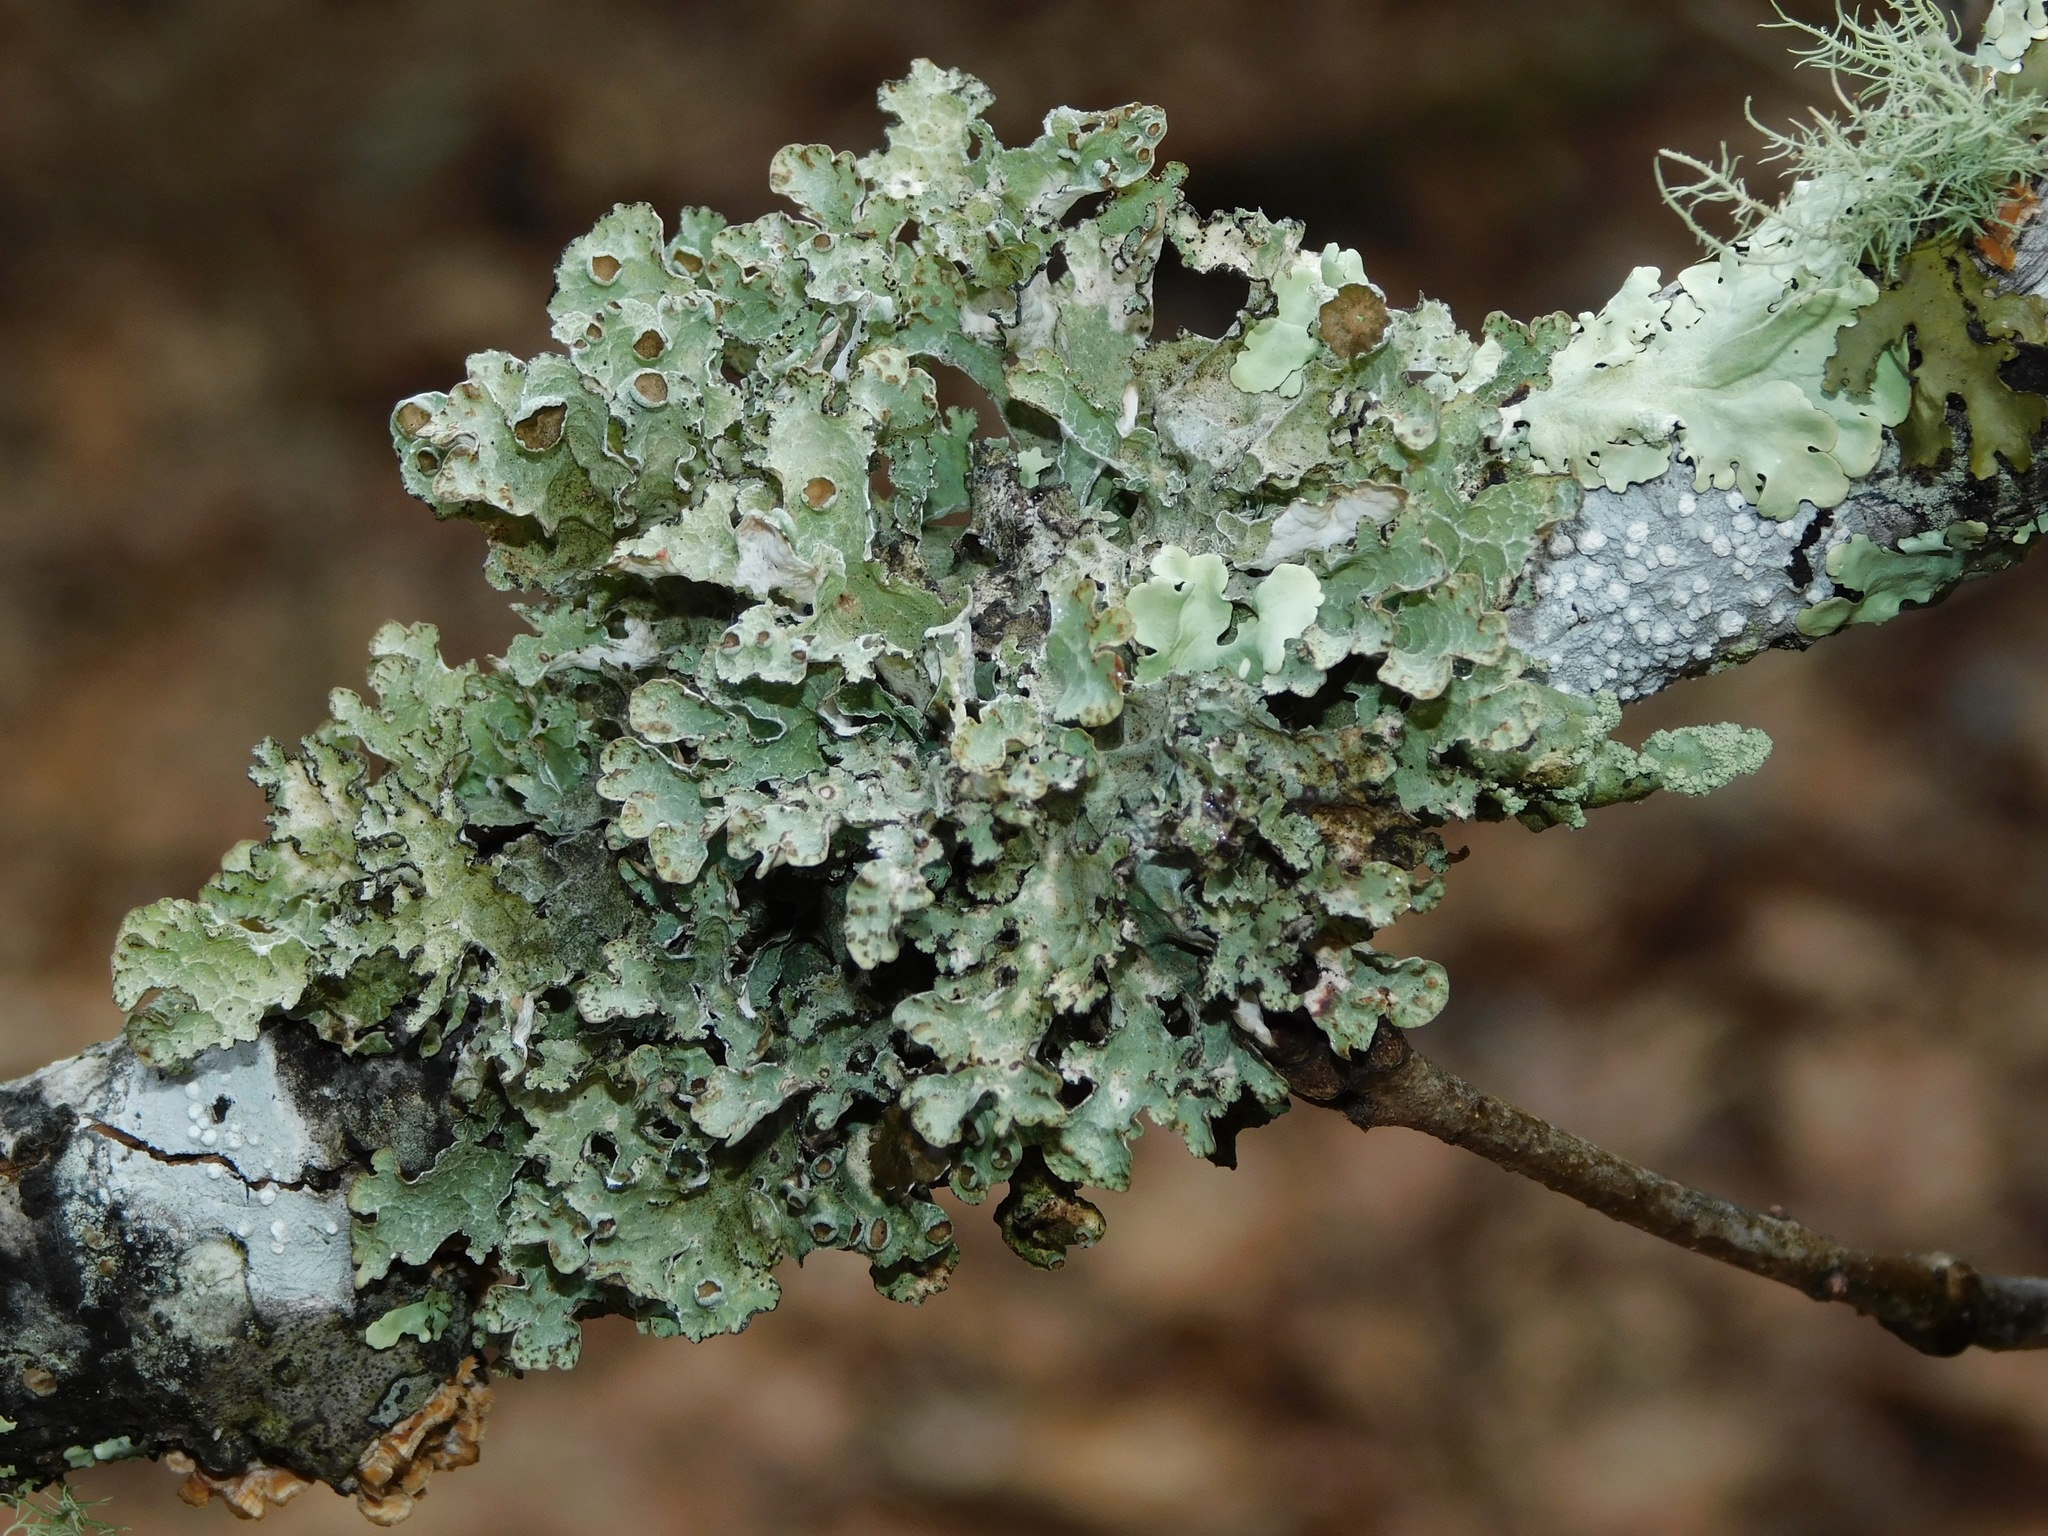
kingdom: Fungi
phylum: Ascomycota
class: Lecanoromycetes
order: Lecanorales
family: Parmeliaceae
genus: Platismatia
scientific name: Platismatia tuckermanii
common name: Crumpled rag lichen
